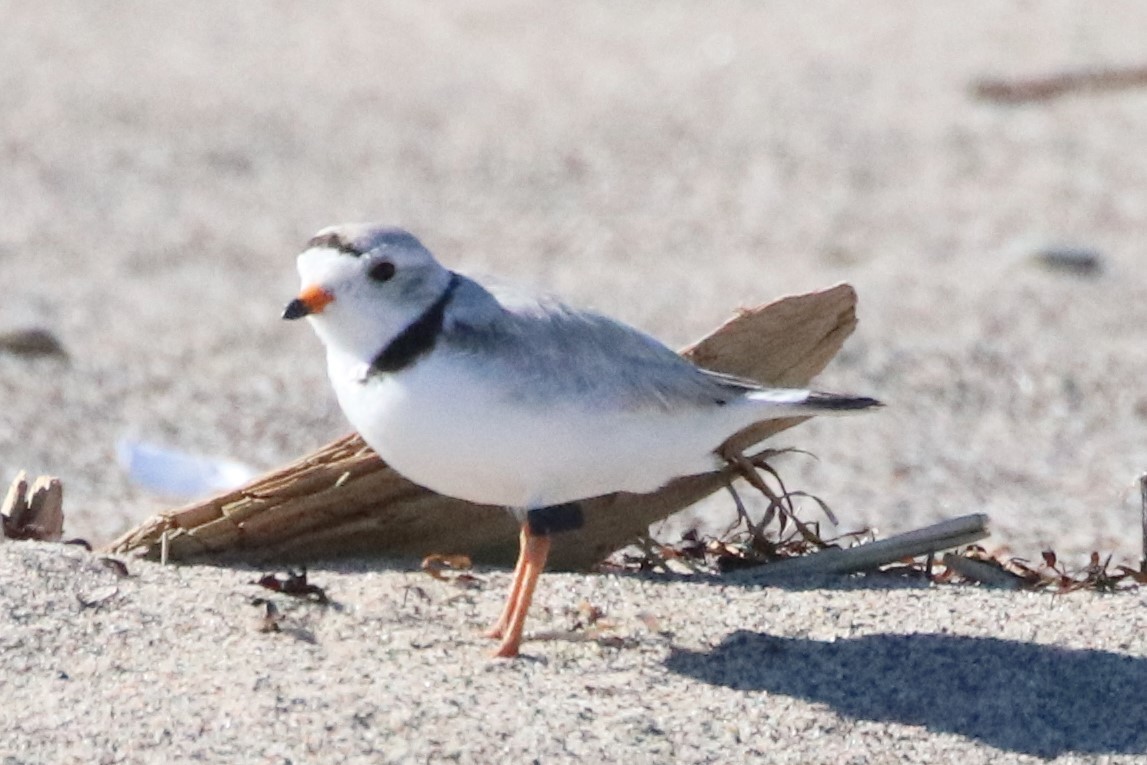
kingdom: Animalia
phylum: Chordata
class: Aves
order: Charadriiformes
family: Charadriidae
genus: Charadrius
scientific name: Charadrius melodus
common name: Piping plover
